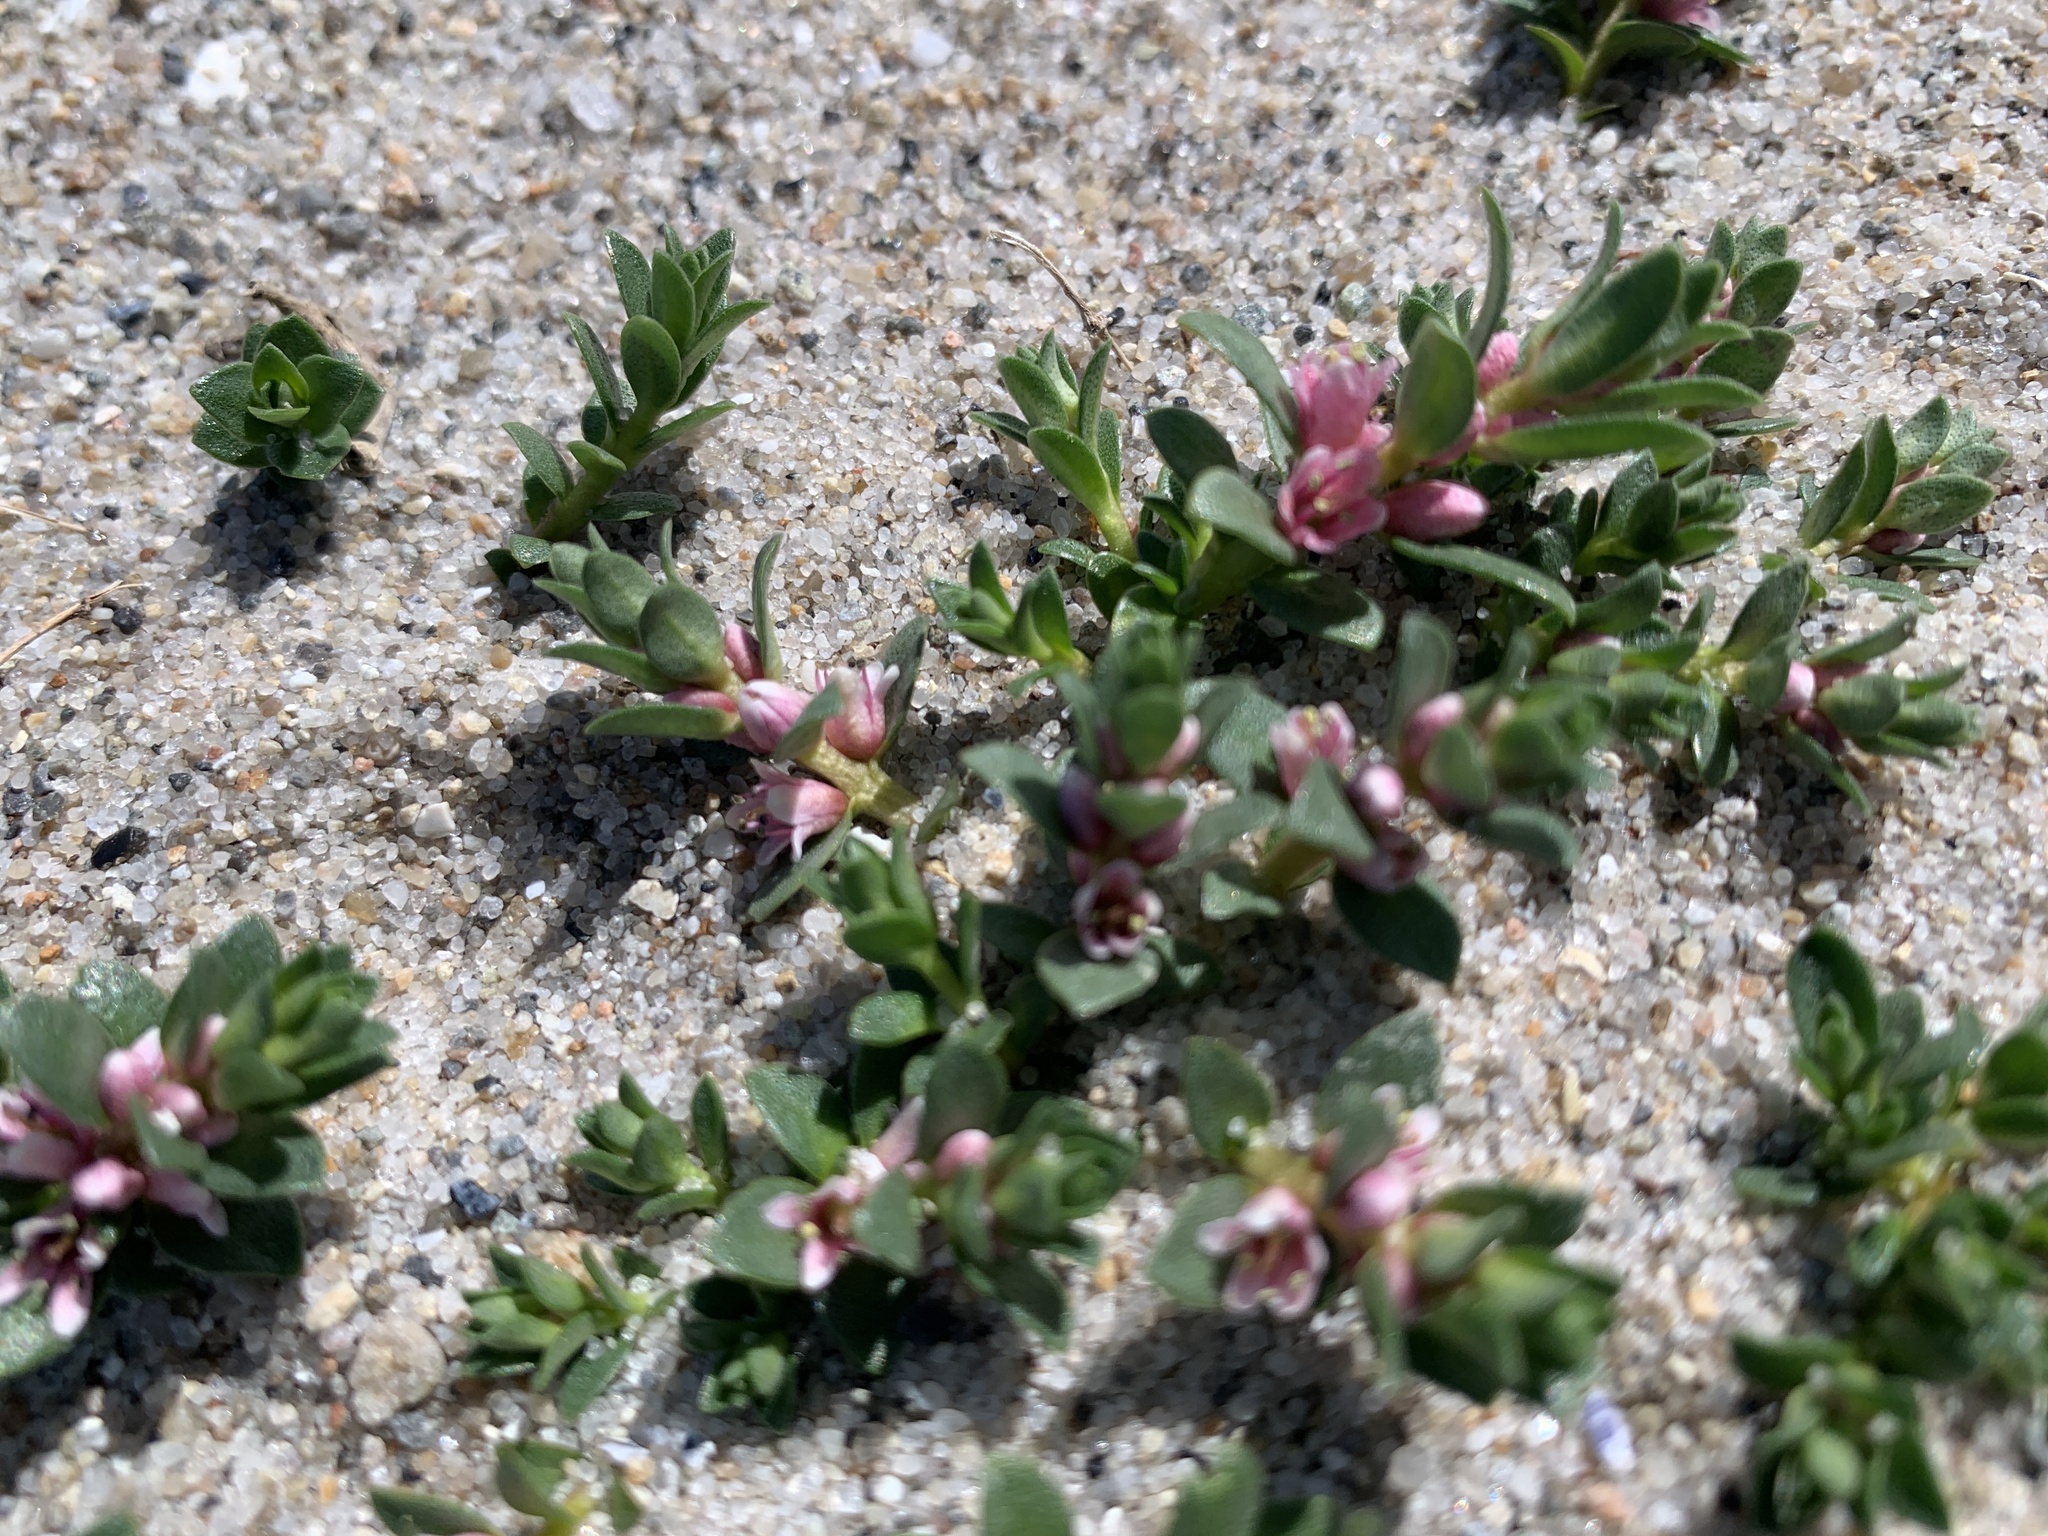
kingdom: Plantae
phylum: Tracheophyta
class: Magnoliopsida
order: Ericales
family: Primulaceae
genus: Lysimachia
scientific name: Lysimachia maritima
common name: Sea milkwort
